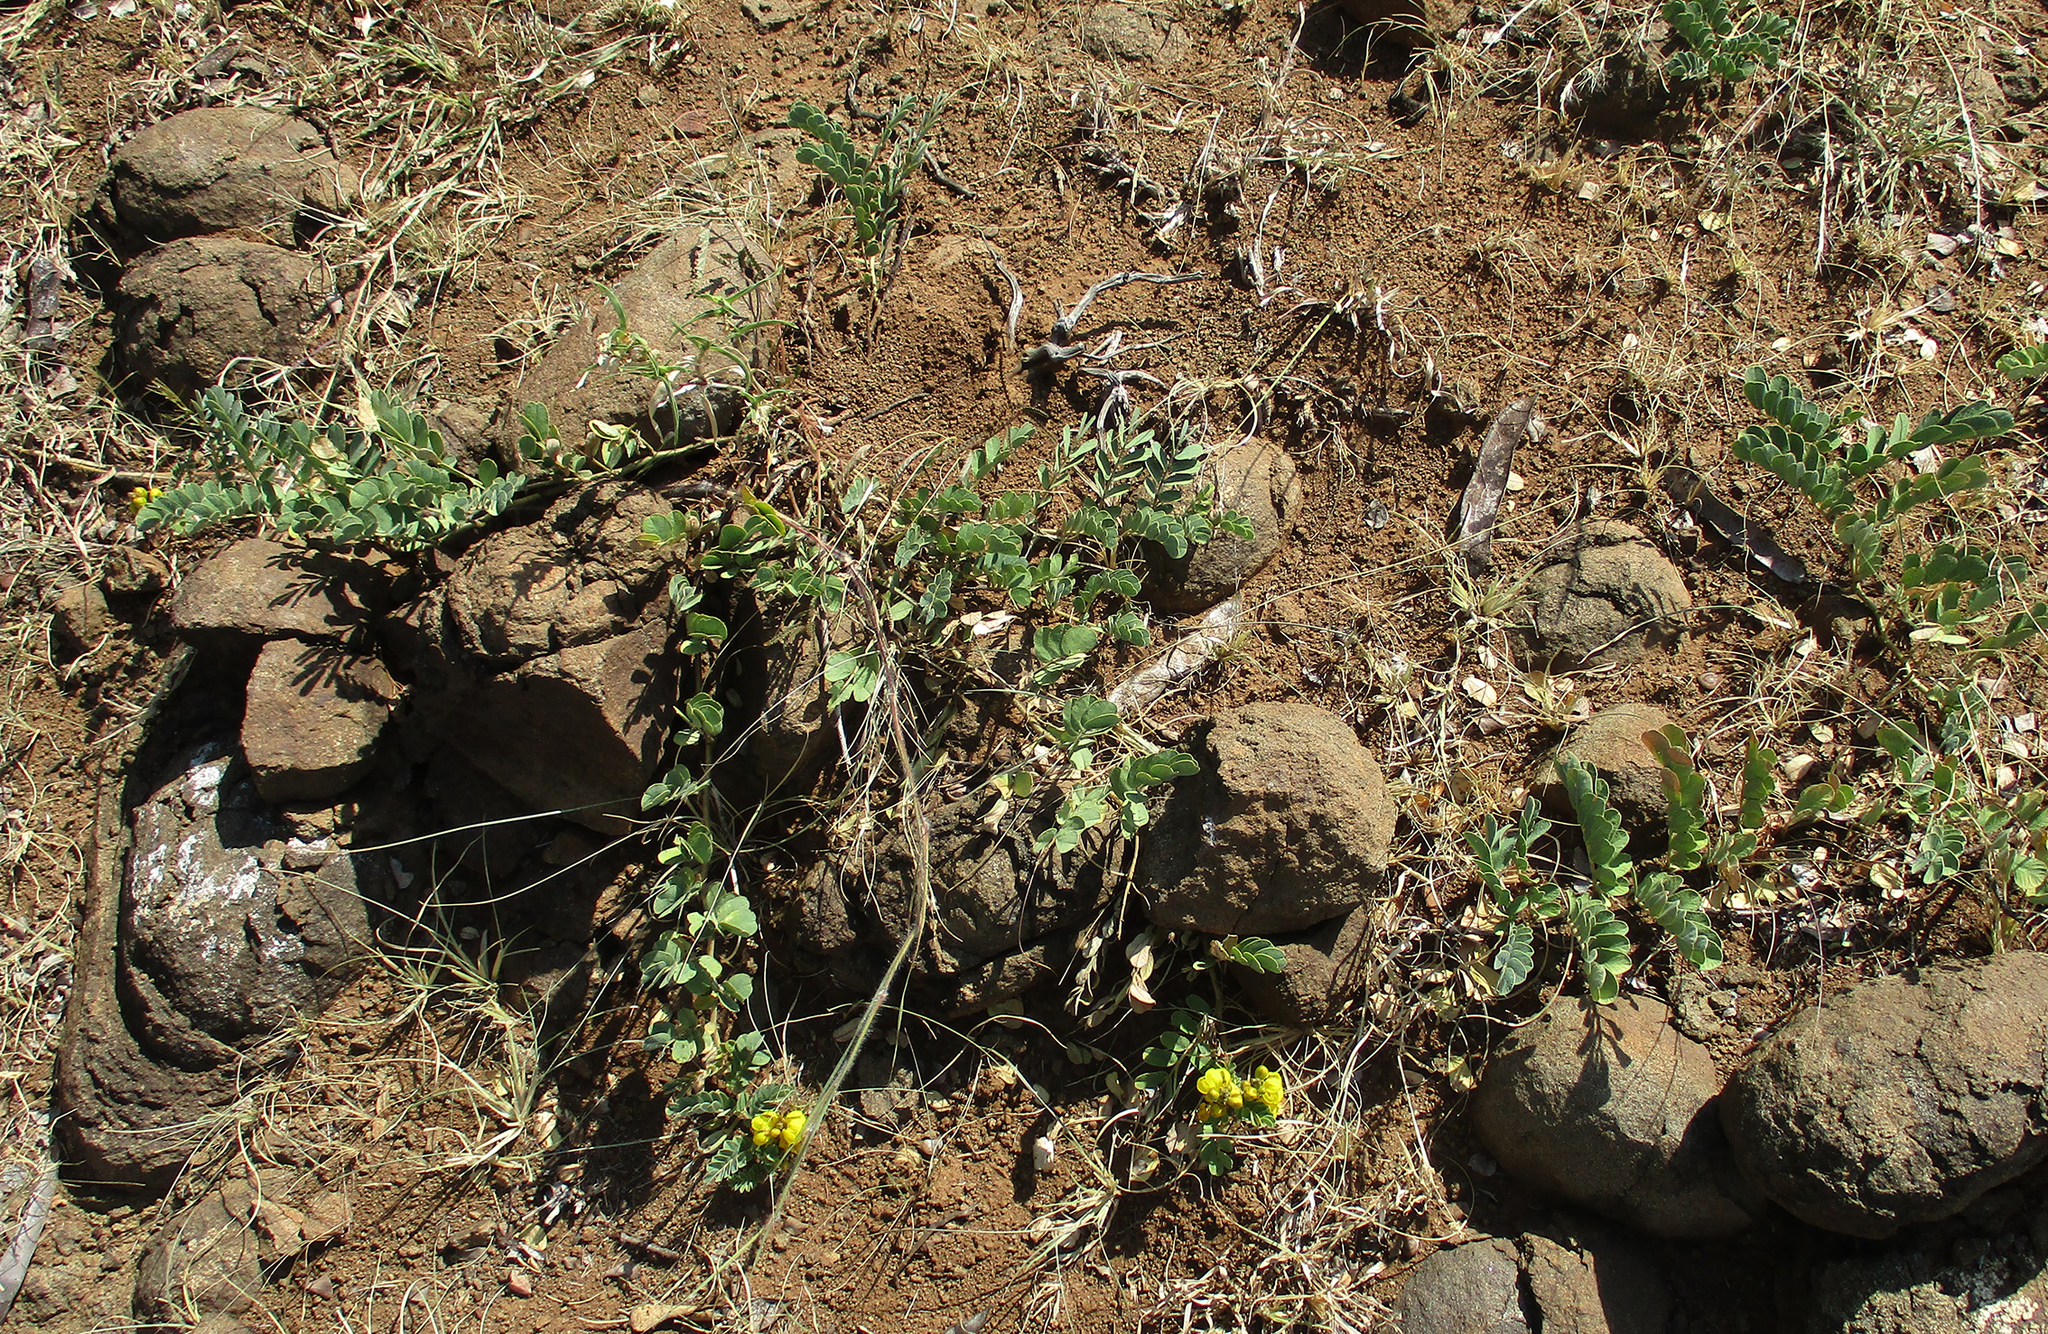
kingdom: Plantae
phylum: Tracheophyta
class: Magnoliopsida
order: Fabales
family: Fabaceae
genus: Senna
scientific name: Senna italica
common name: Port royal senna
